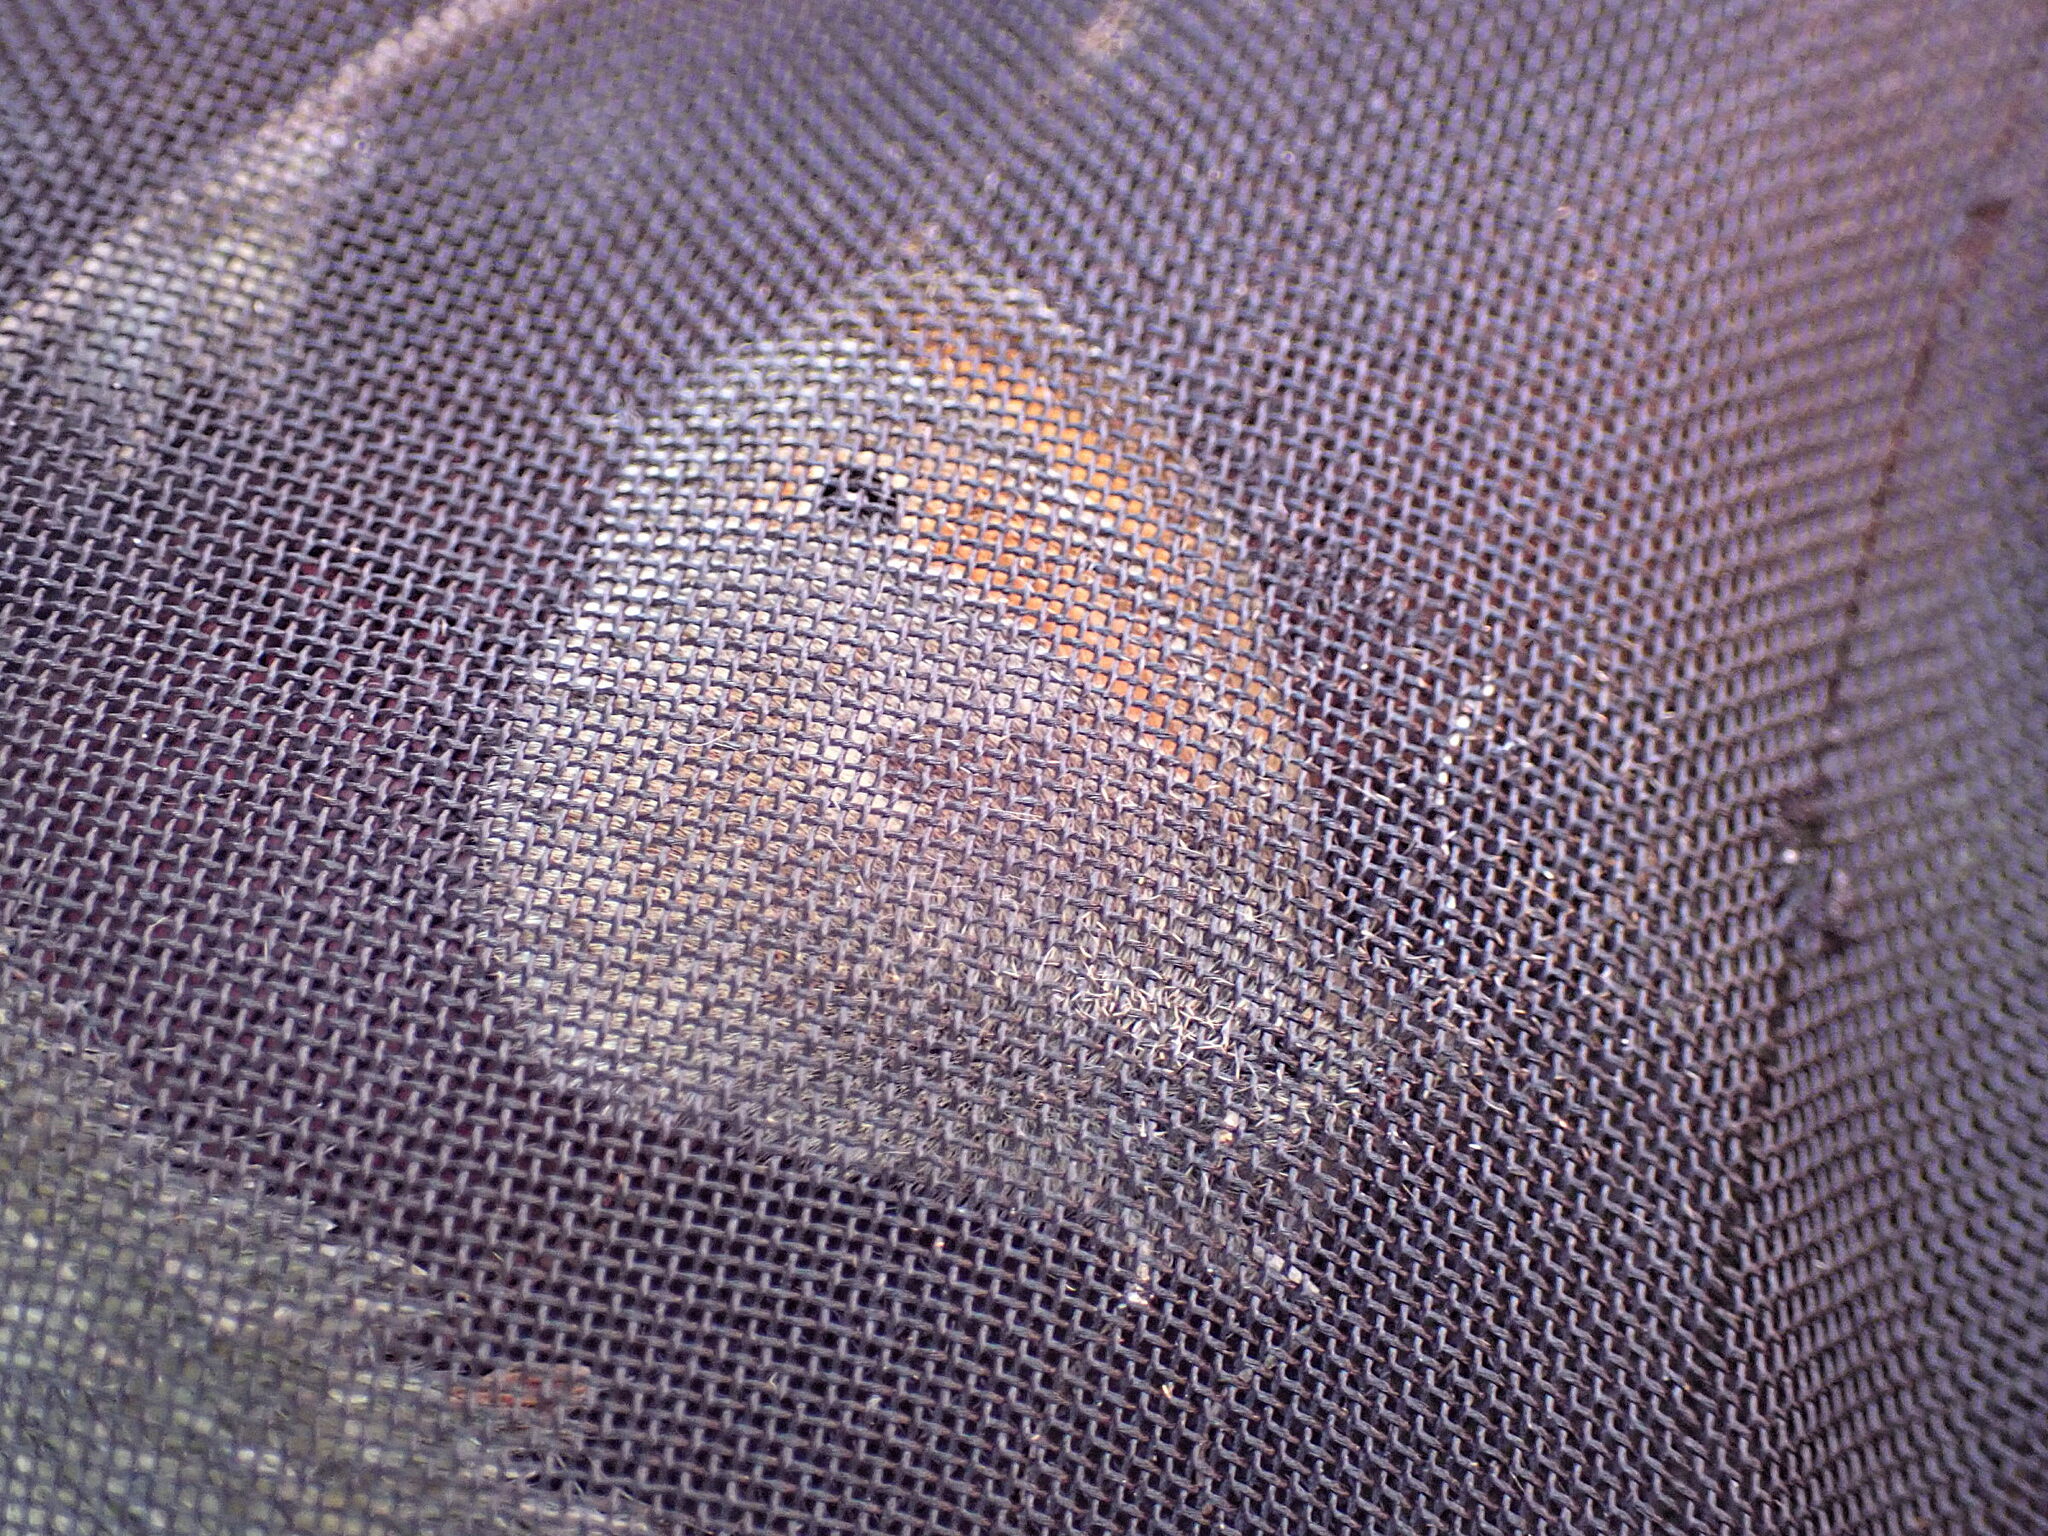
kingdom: Animalia
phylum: Arthropoda
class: Insecta
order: Lepidoptera
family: Nymphalidae
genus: Coenonympha
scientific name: Coenonympha pamphilus
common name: Small heath
